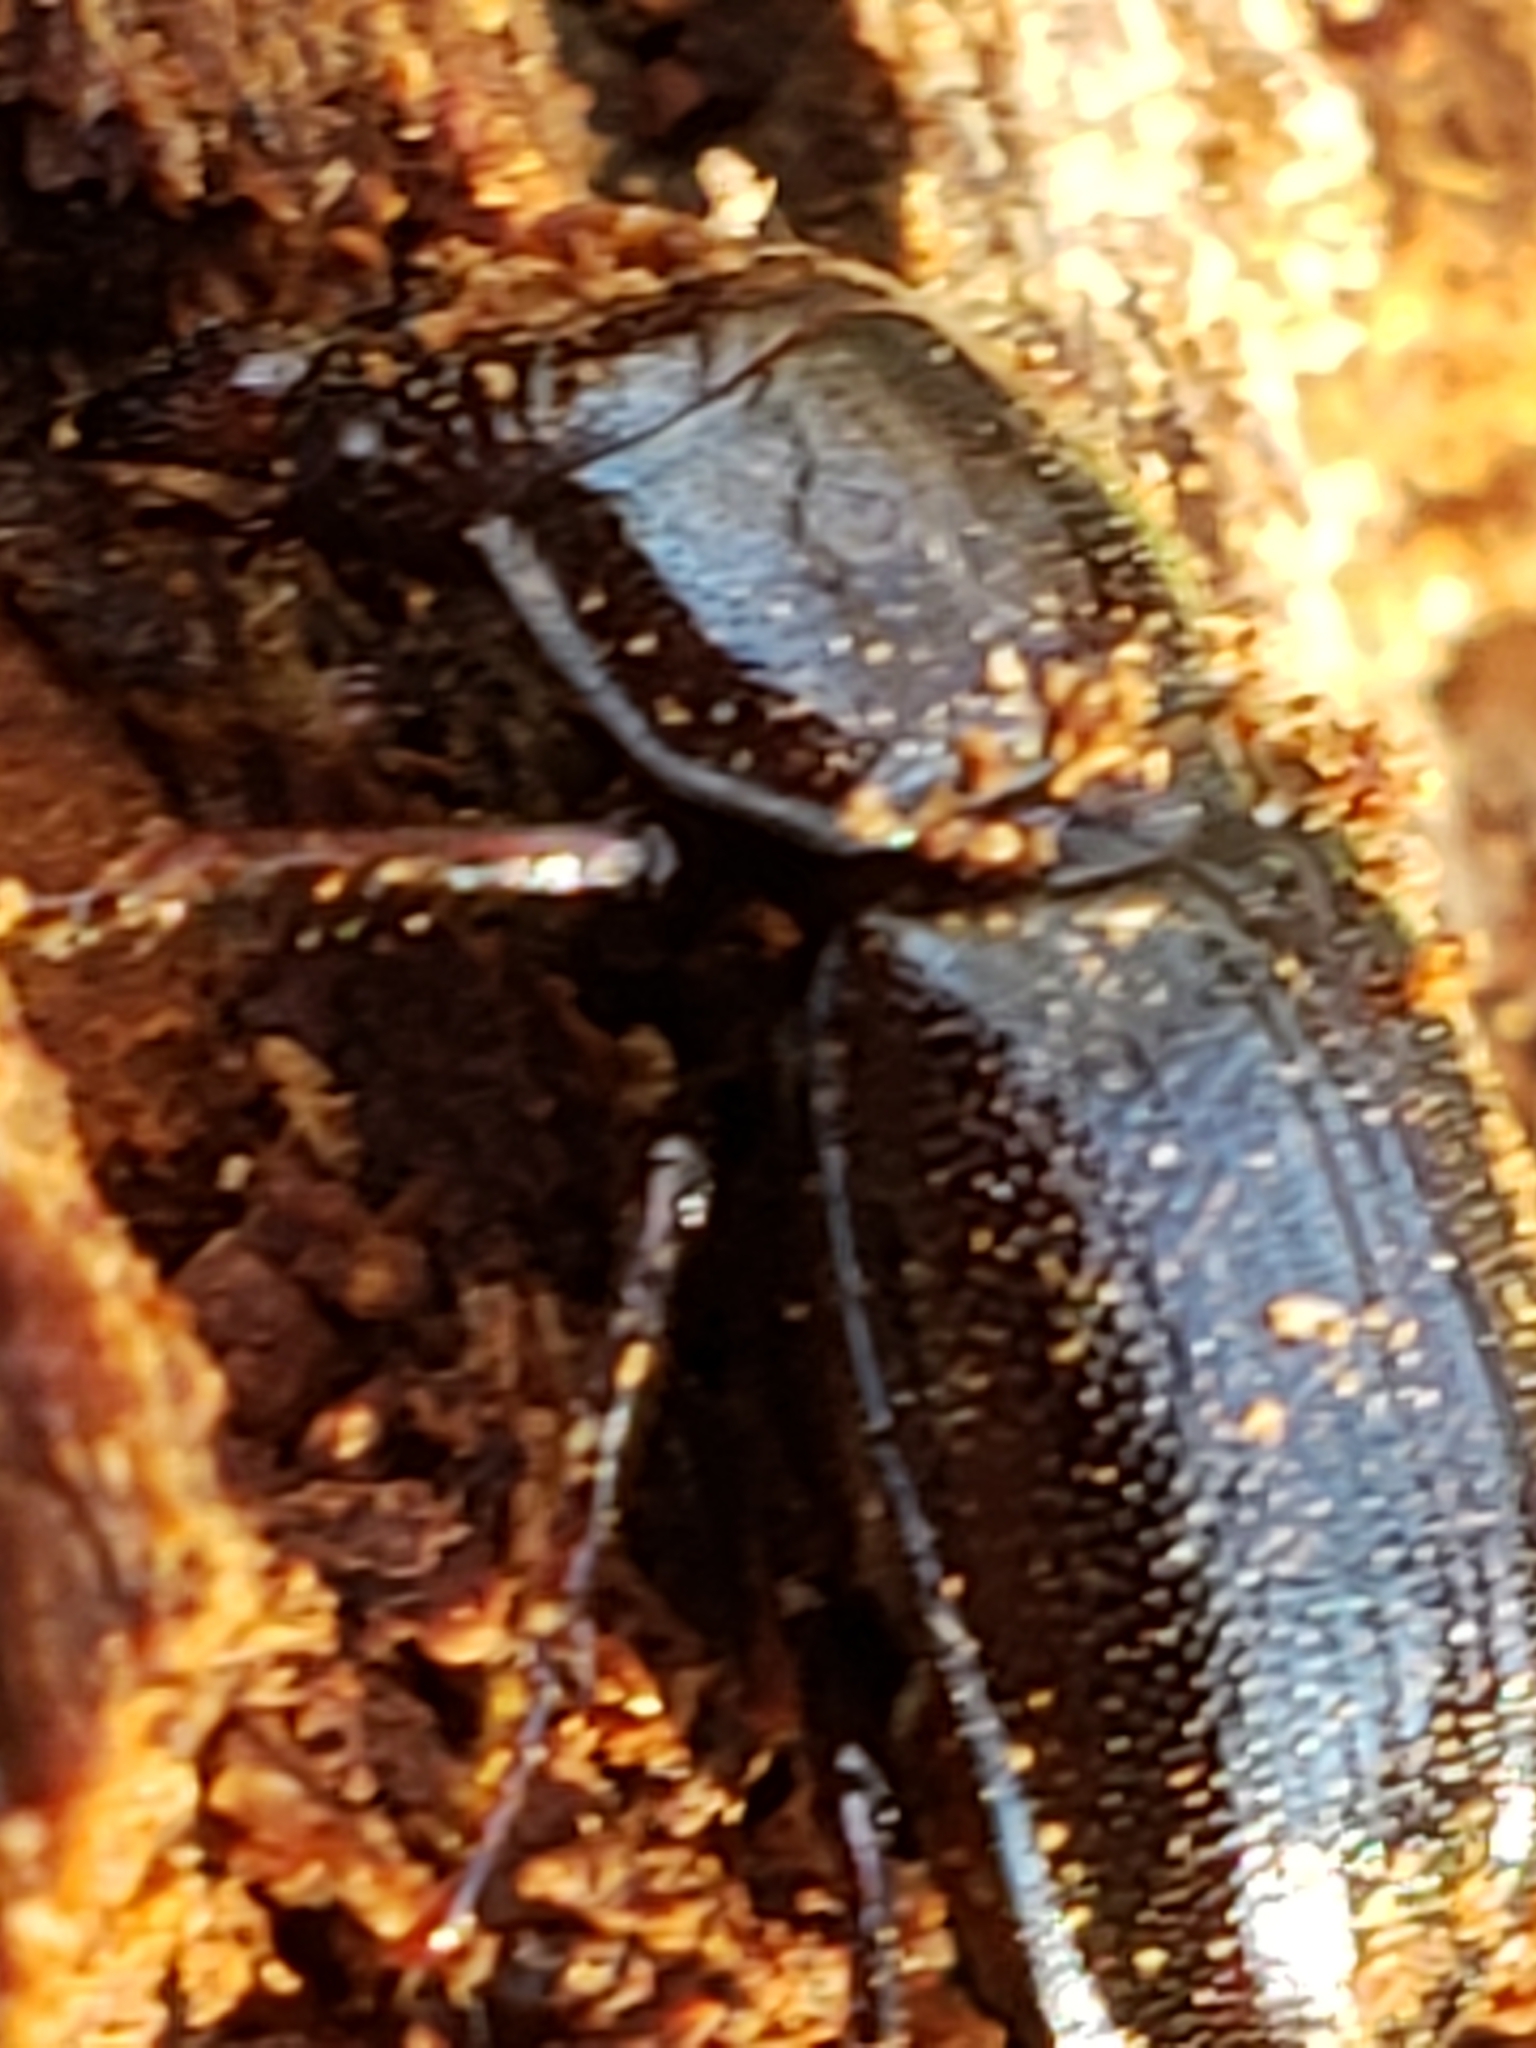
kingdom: Animalia
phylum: Arthropoda
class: Insecta
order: Coleoptera
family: Lucanidae
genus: Ceruchus
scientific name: Ceruchus piceus
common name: Red-rot decay stag beetle
